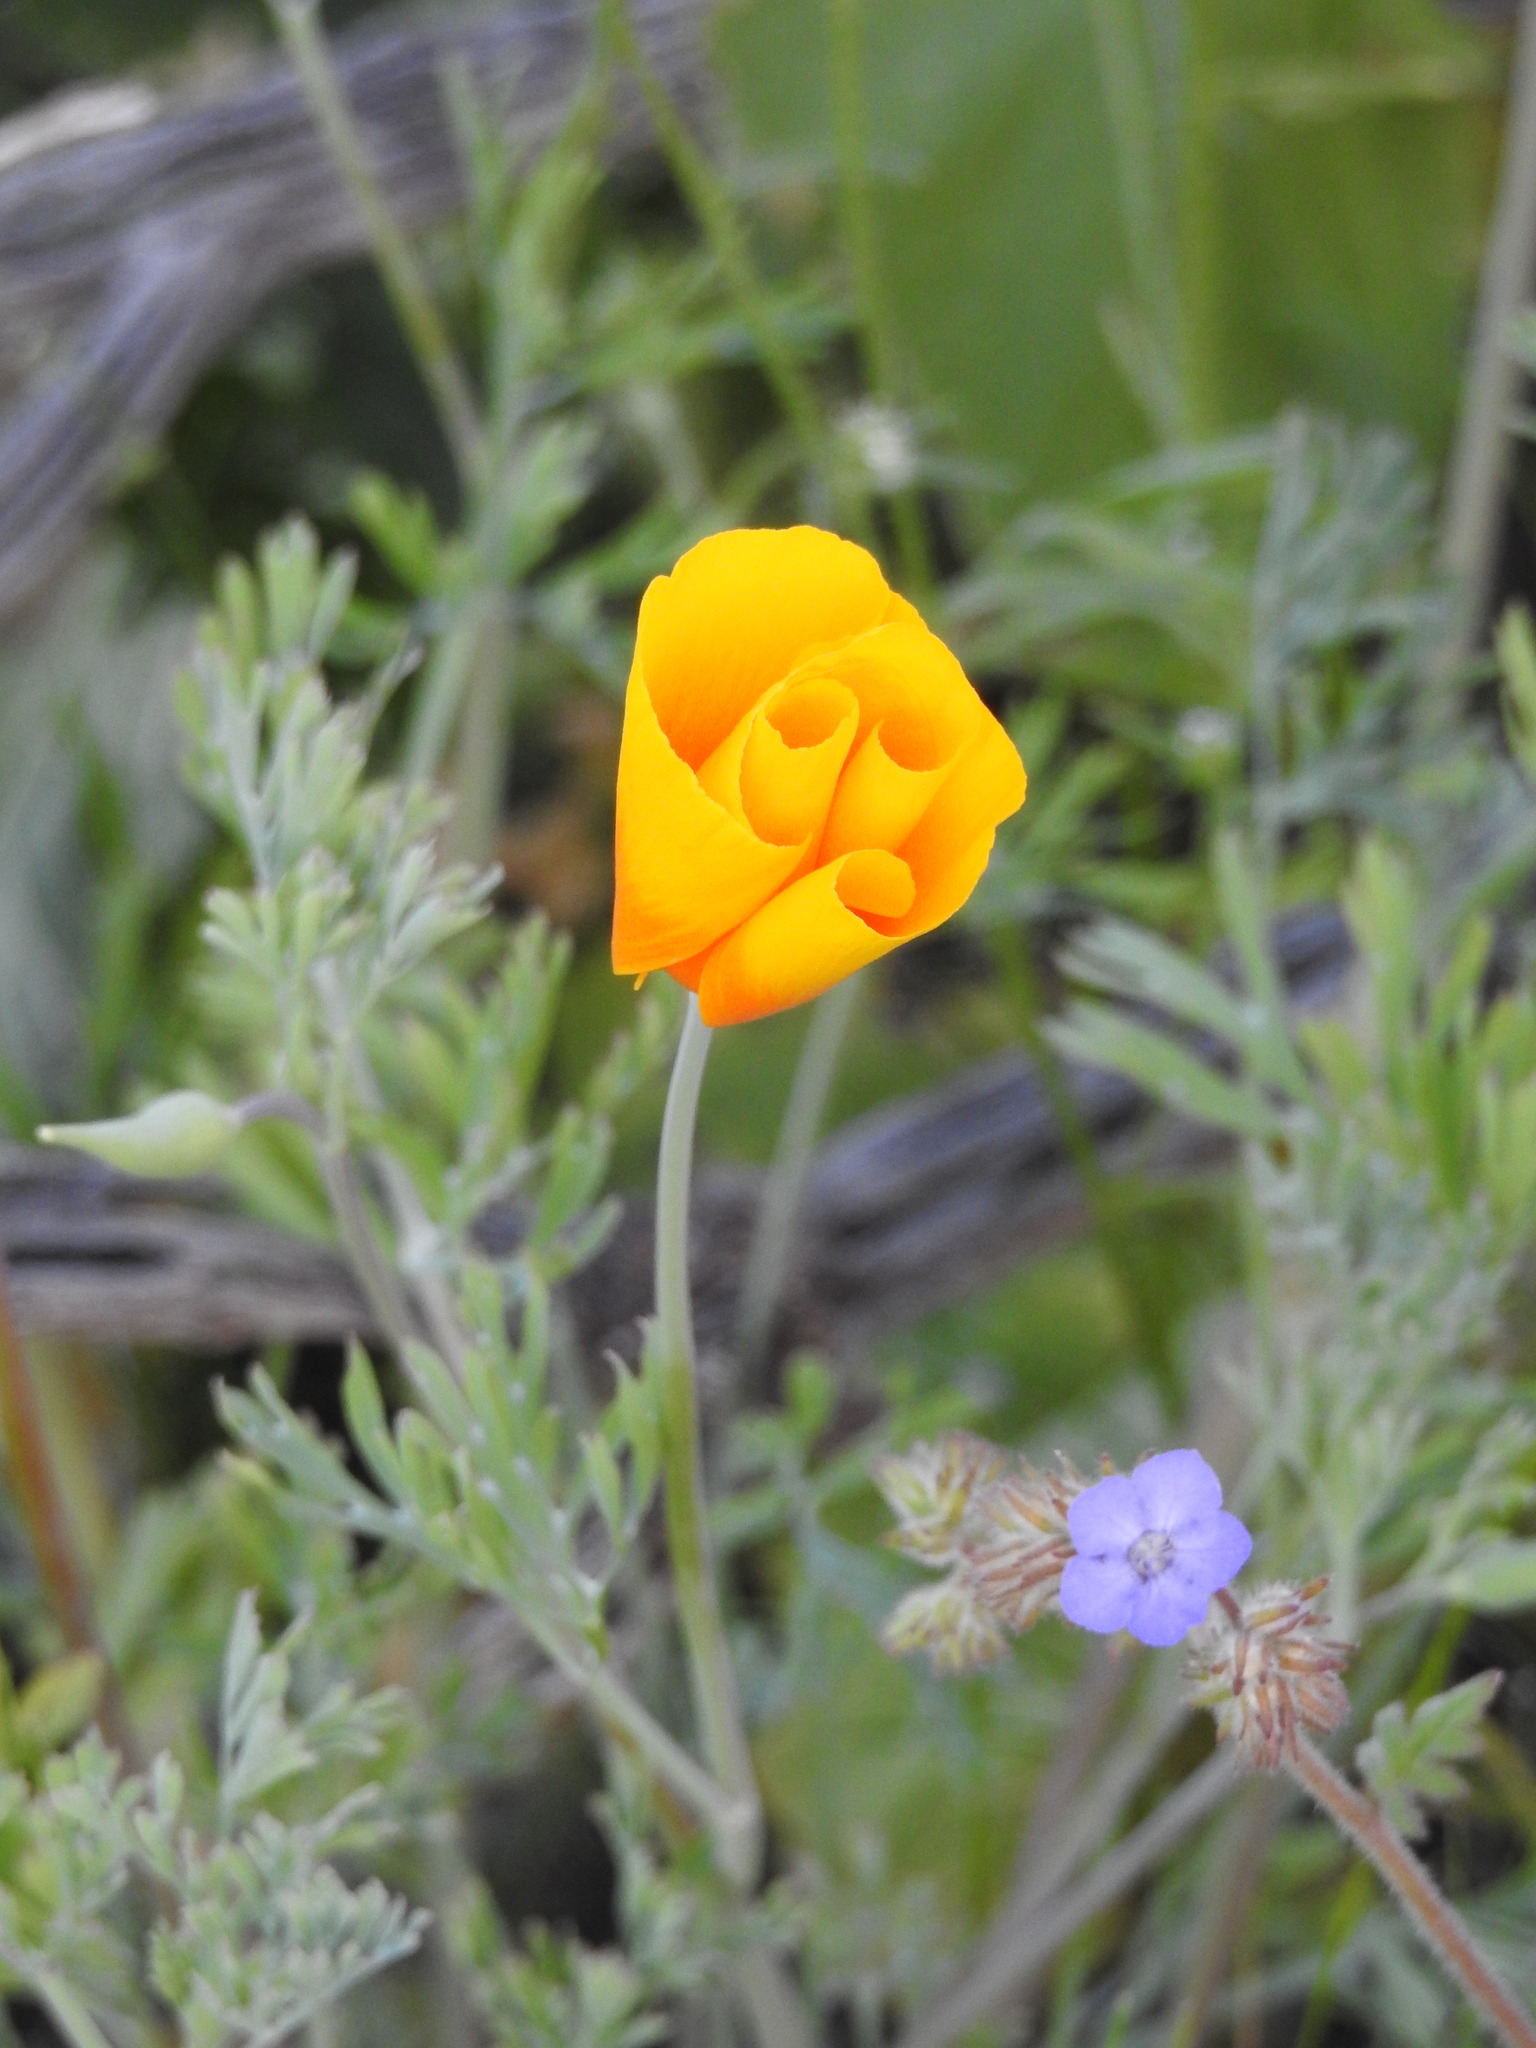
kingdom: Plantae
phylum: Tracheophyta
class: Magnoliopsida
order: Ranunculales
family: Papaveraceae
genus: Eschscholzia
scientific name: Eschscholzia californica
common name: California poppy
